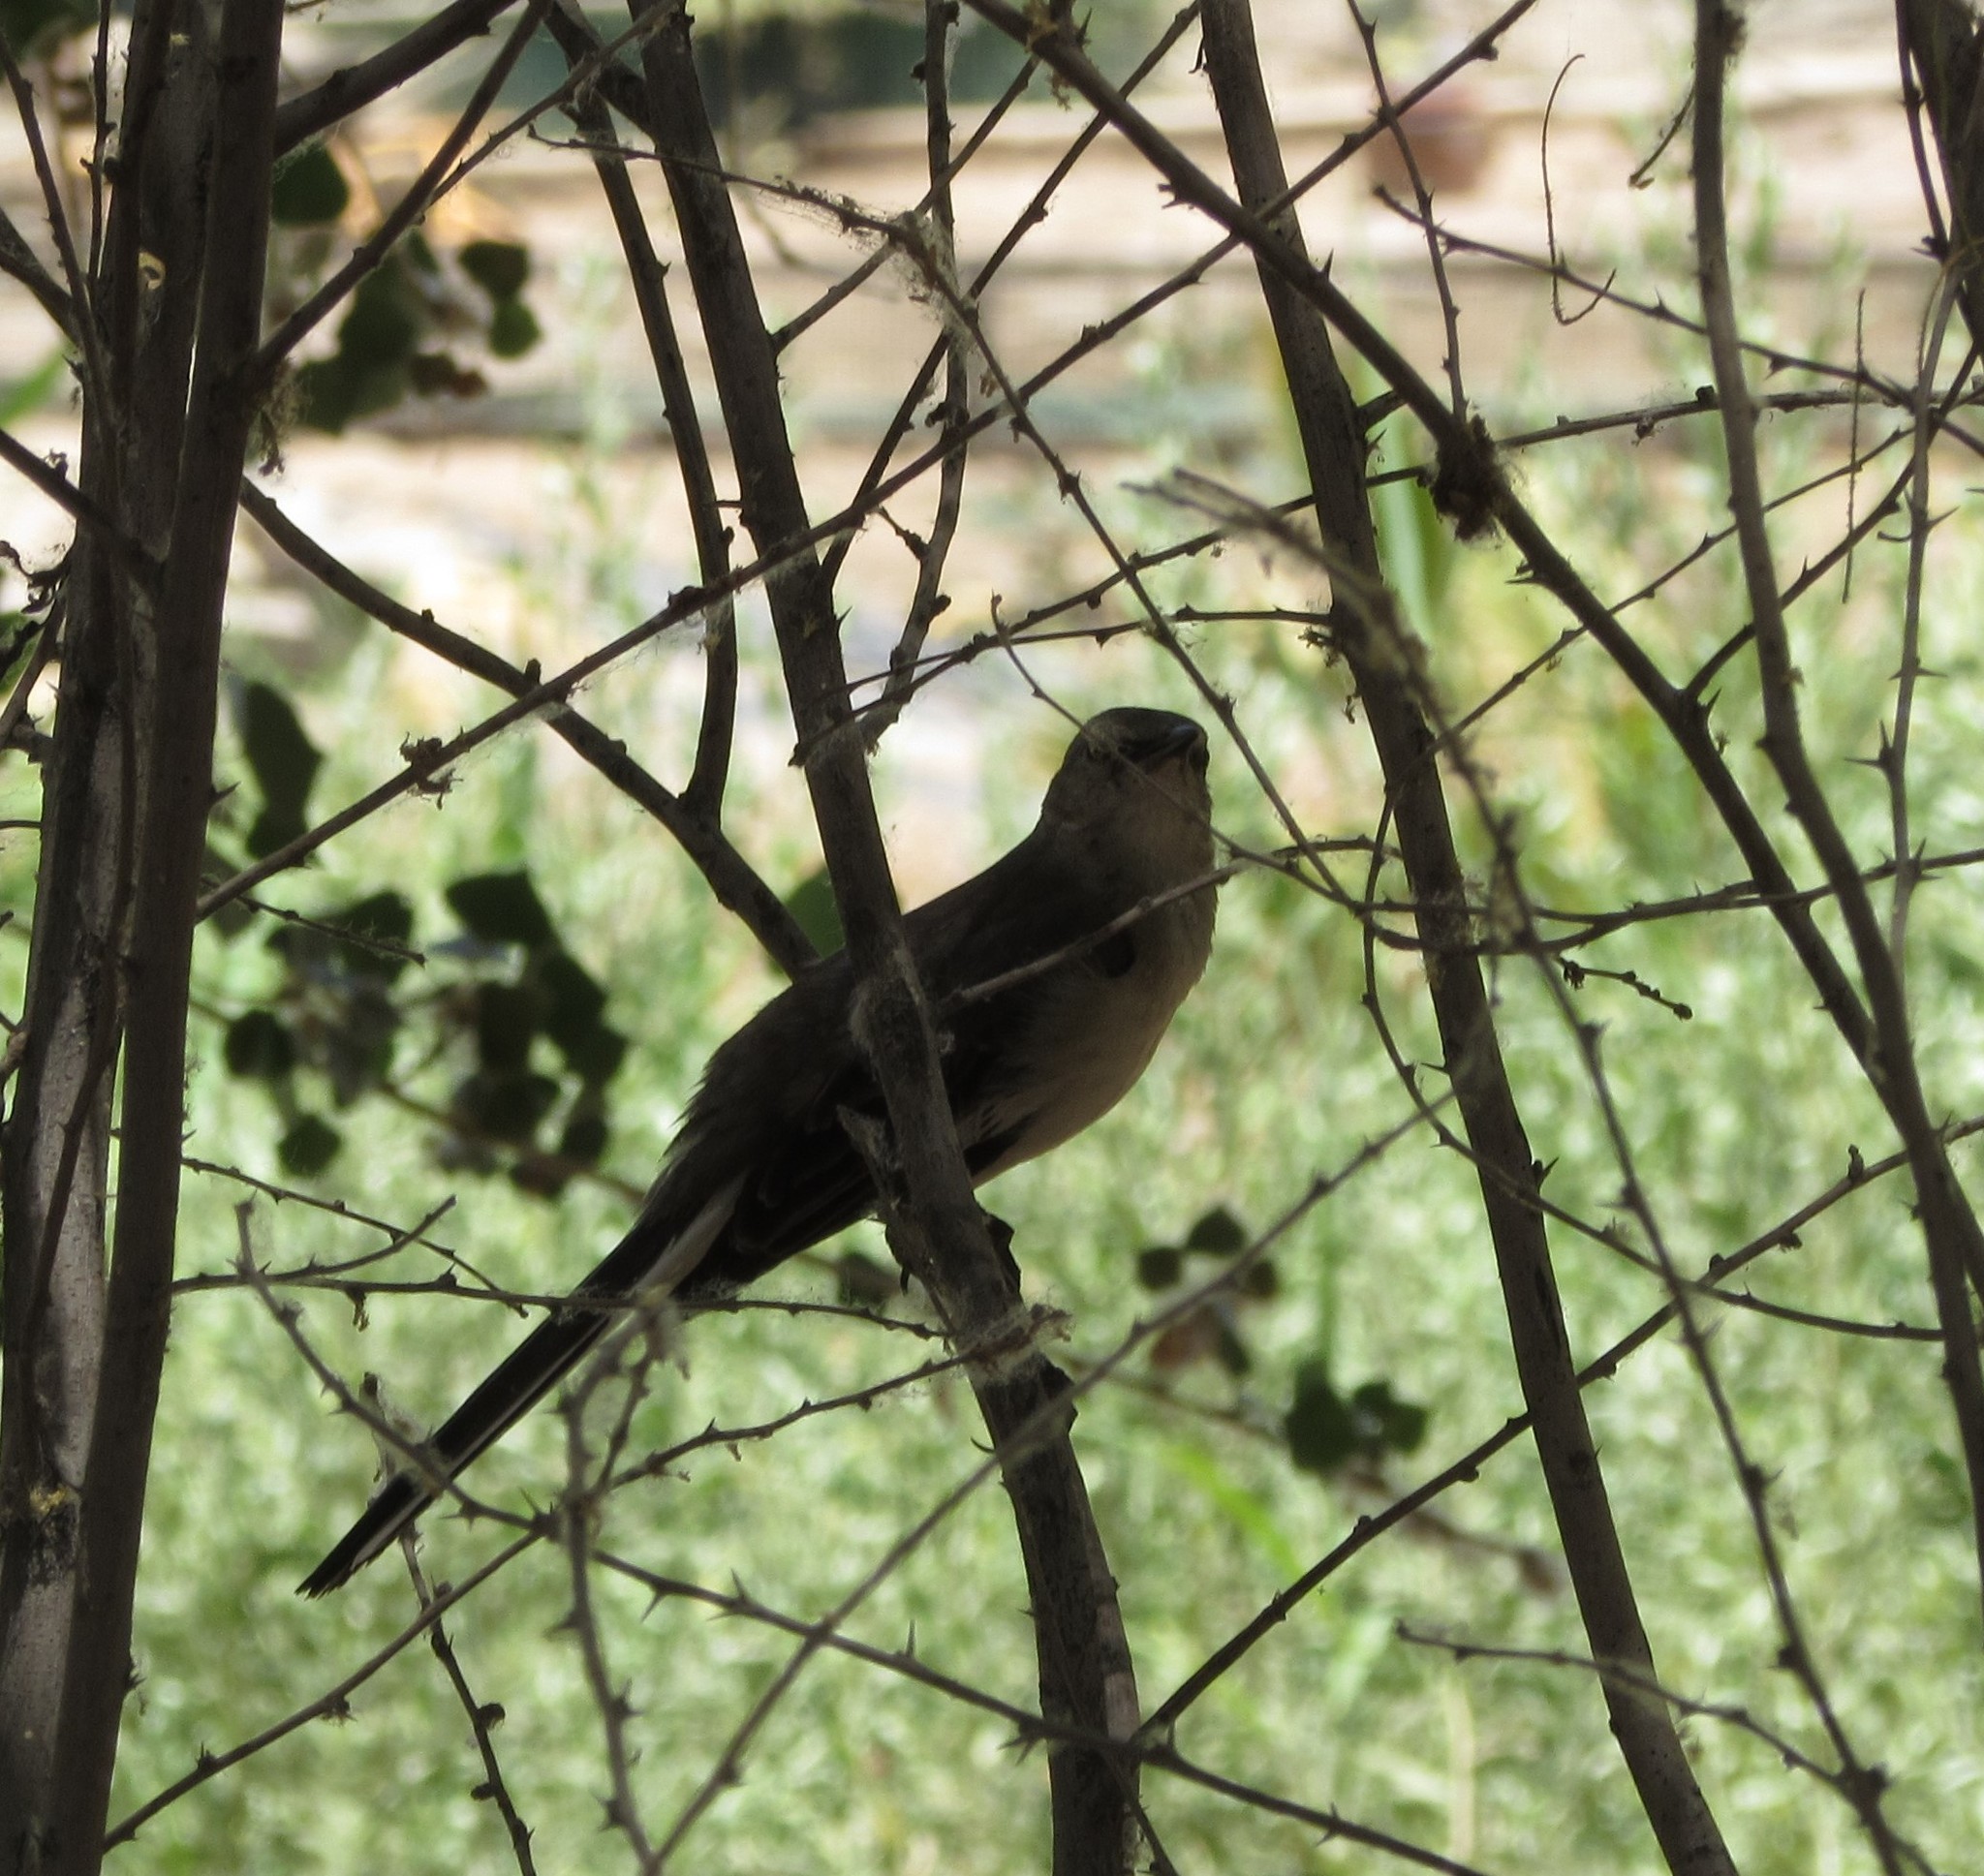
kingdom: Animalia
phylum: Chordata
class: Aves
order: Passeriformes
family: Mimidae
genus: Mimus
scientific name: Mimus polyglottos
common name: Northern mockingbird
